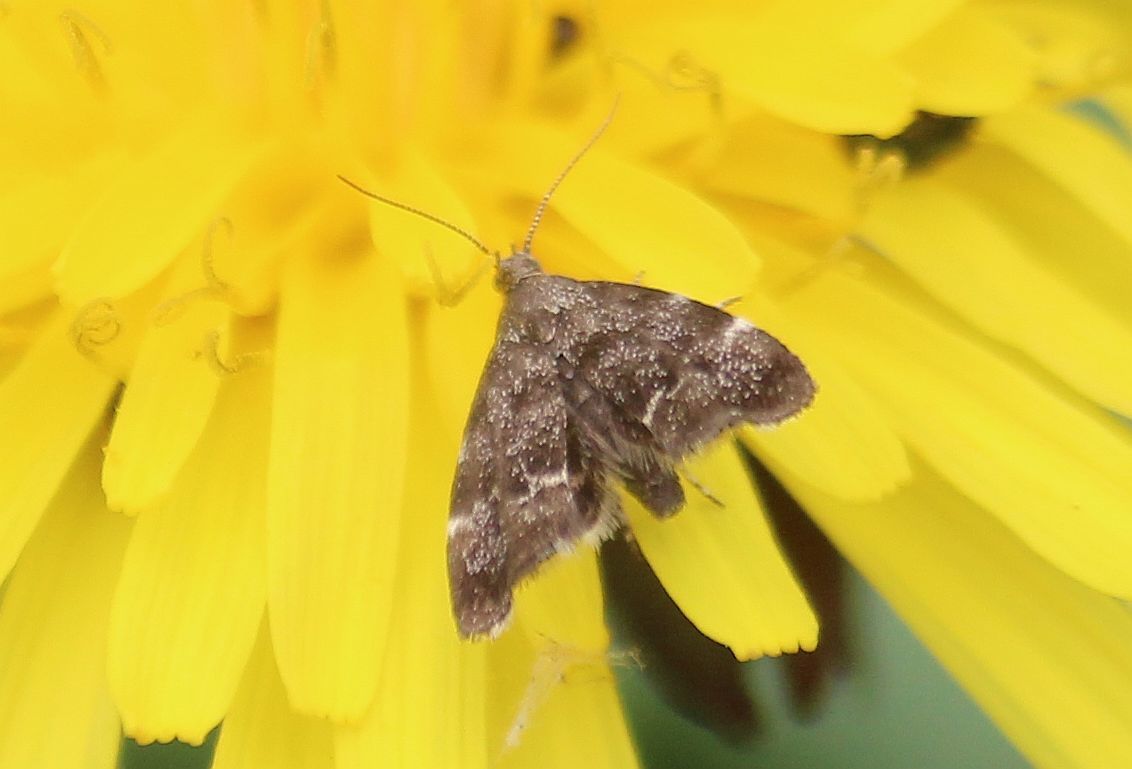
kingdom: Animalia
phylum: Arthropoda
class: Insecta
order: Lepidoptera
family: Choreutidae
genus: Anthophila
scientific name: Anthophila fabriciana
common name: Nettle-tap
